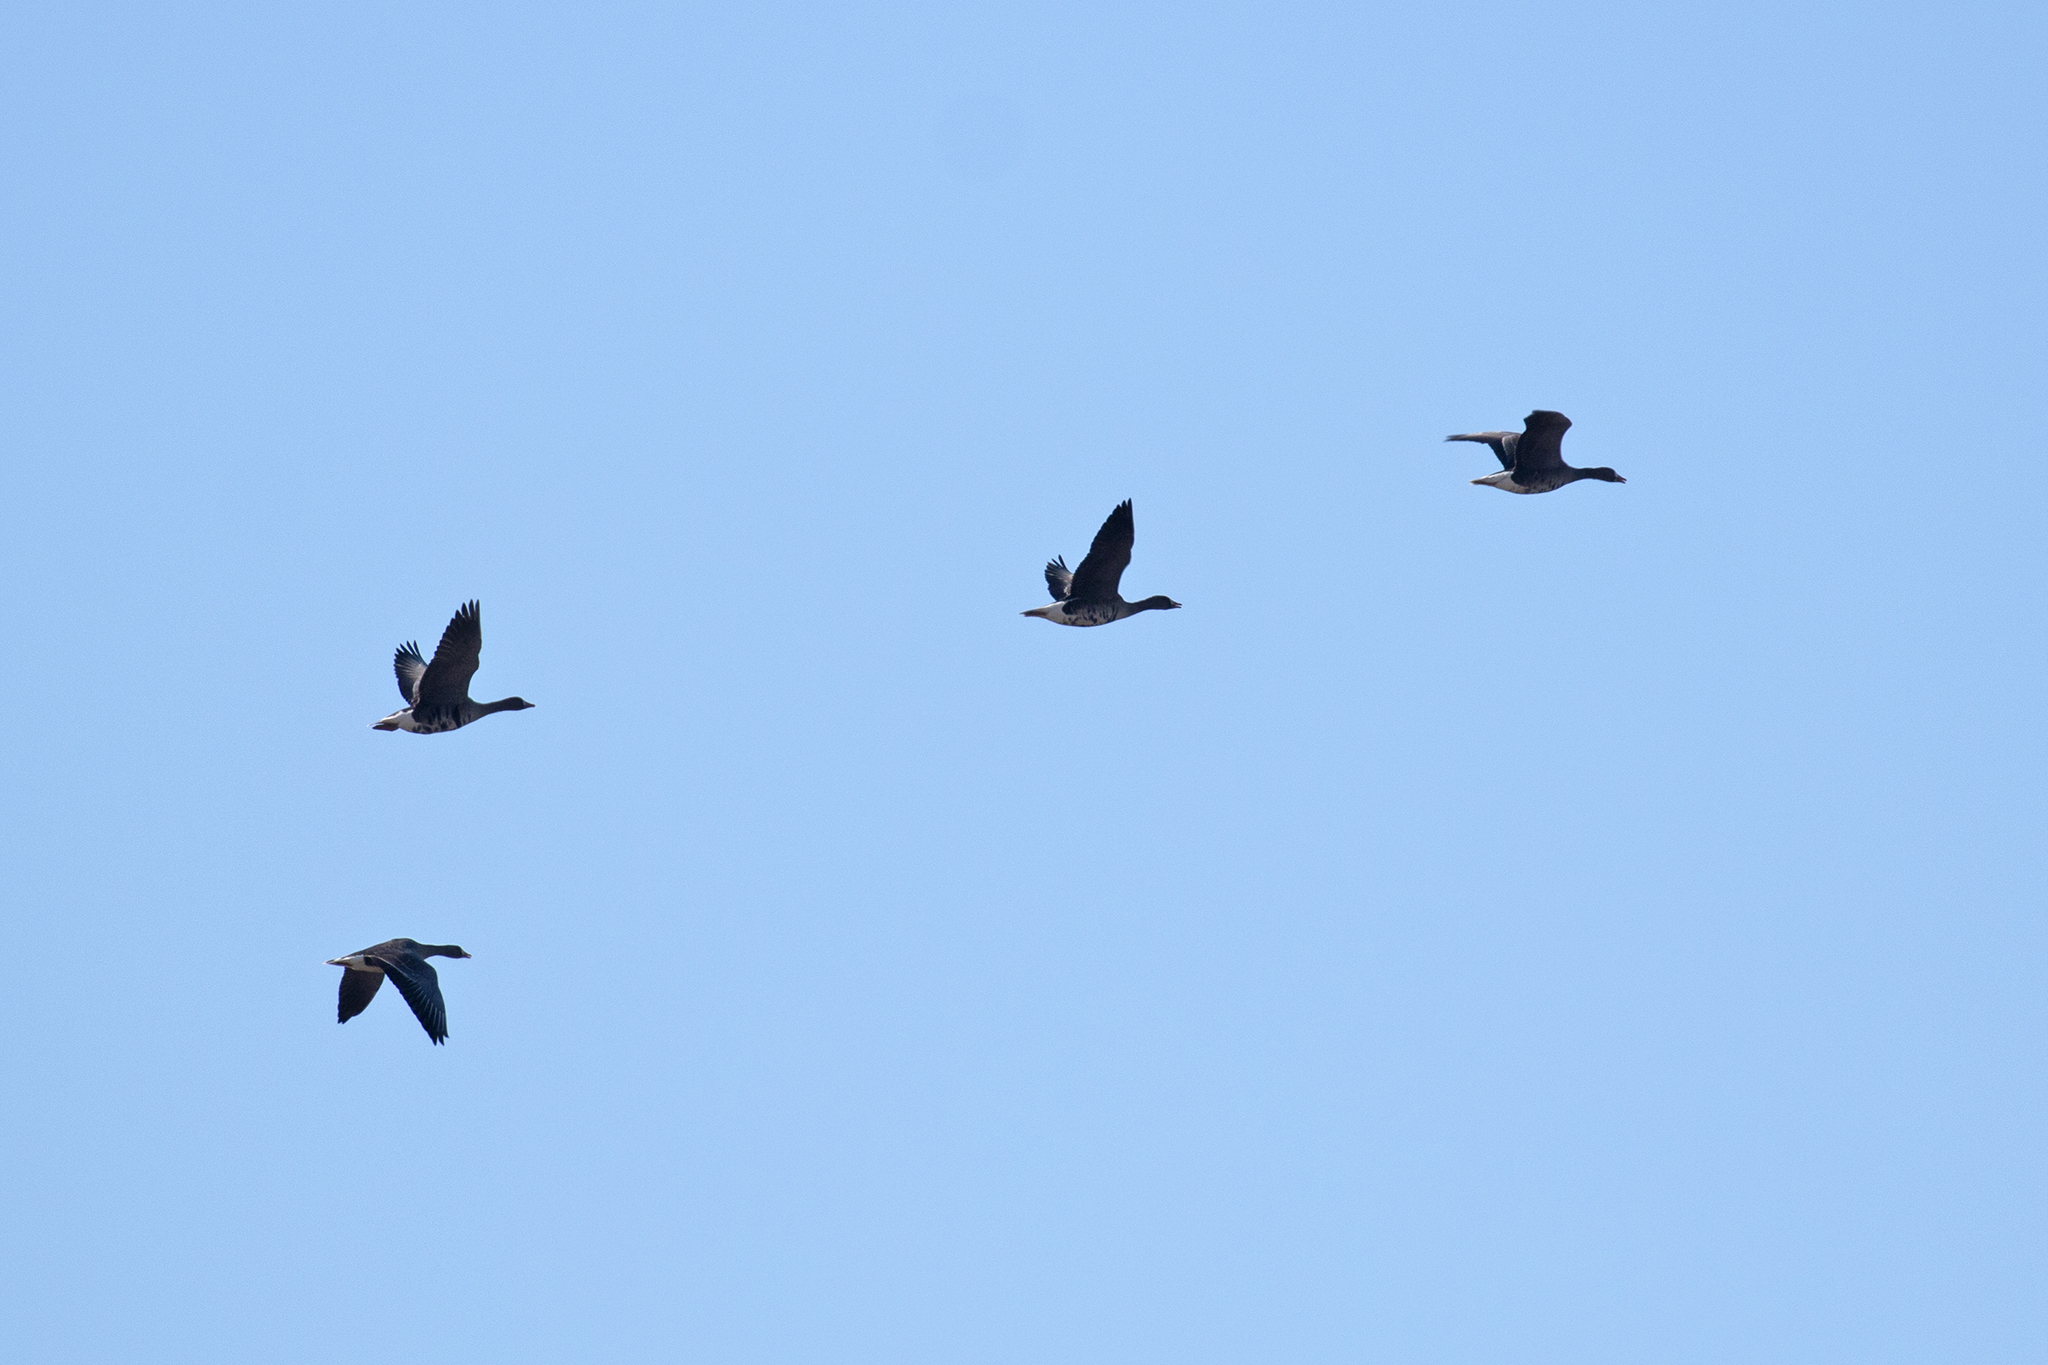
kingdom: Animalia
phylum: Chordata
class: Aves
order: Anseriformes
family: Anatidae
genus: Anser
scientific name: Anser albifrons
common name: Greater white-fronted goose
